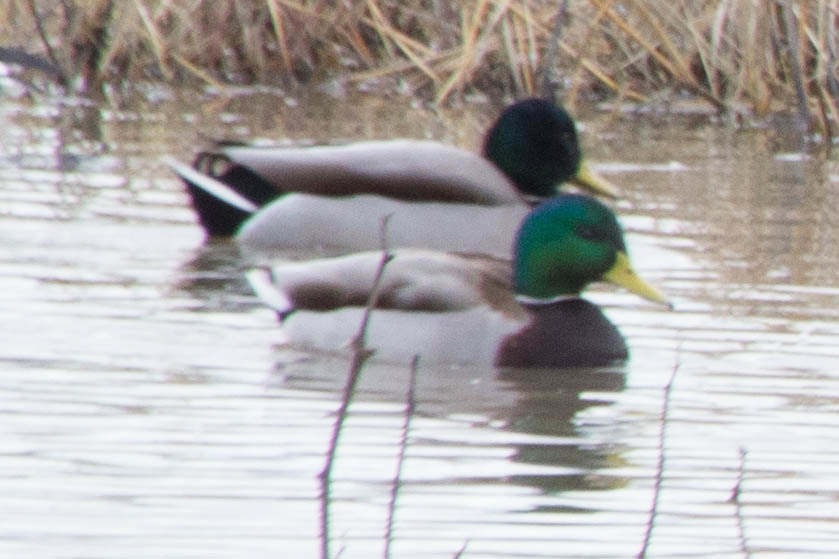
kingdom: Animalia
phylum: Chordata
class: Aves
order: Anseriformes
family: Anatidae
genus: Anas
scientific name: Anas platyrhynchos
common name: Mallard
